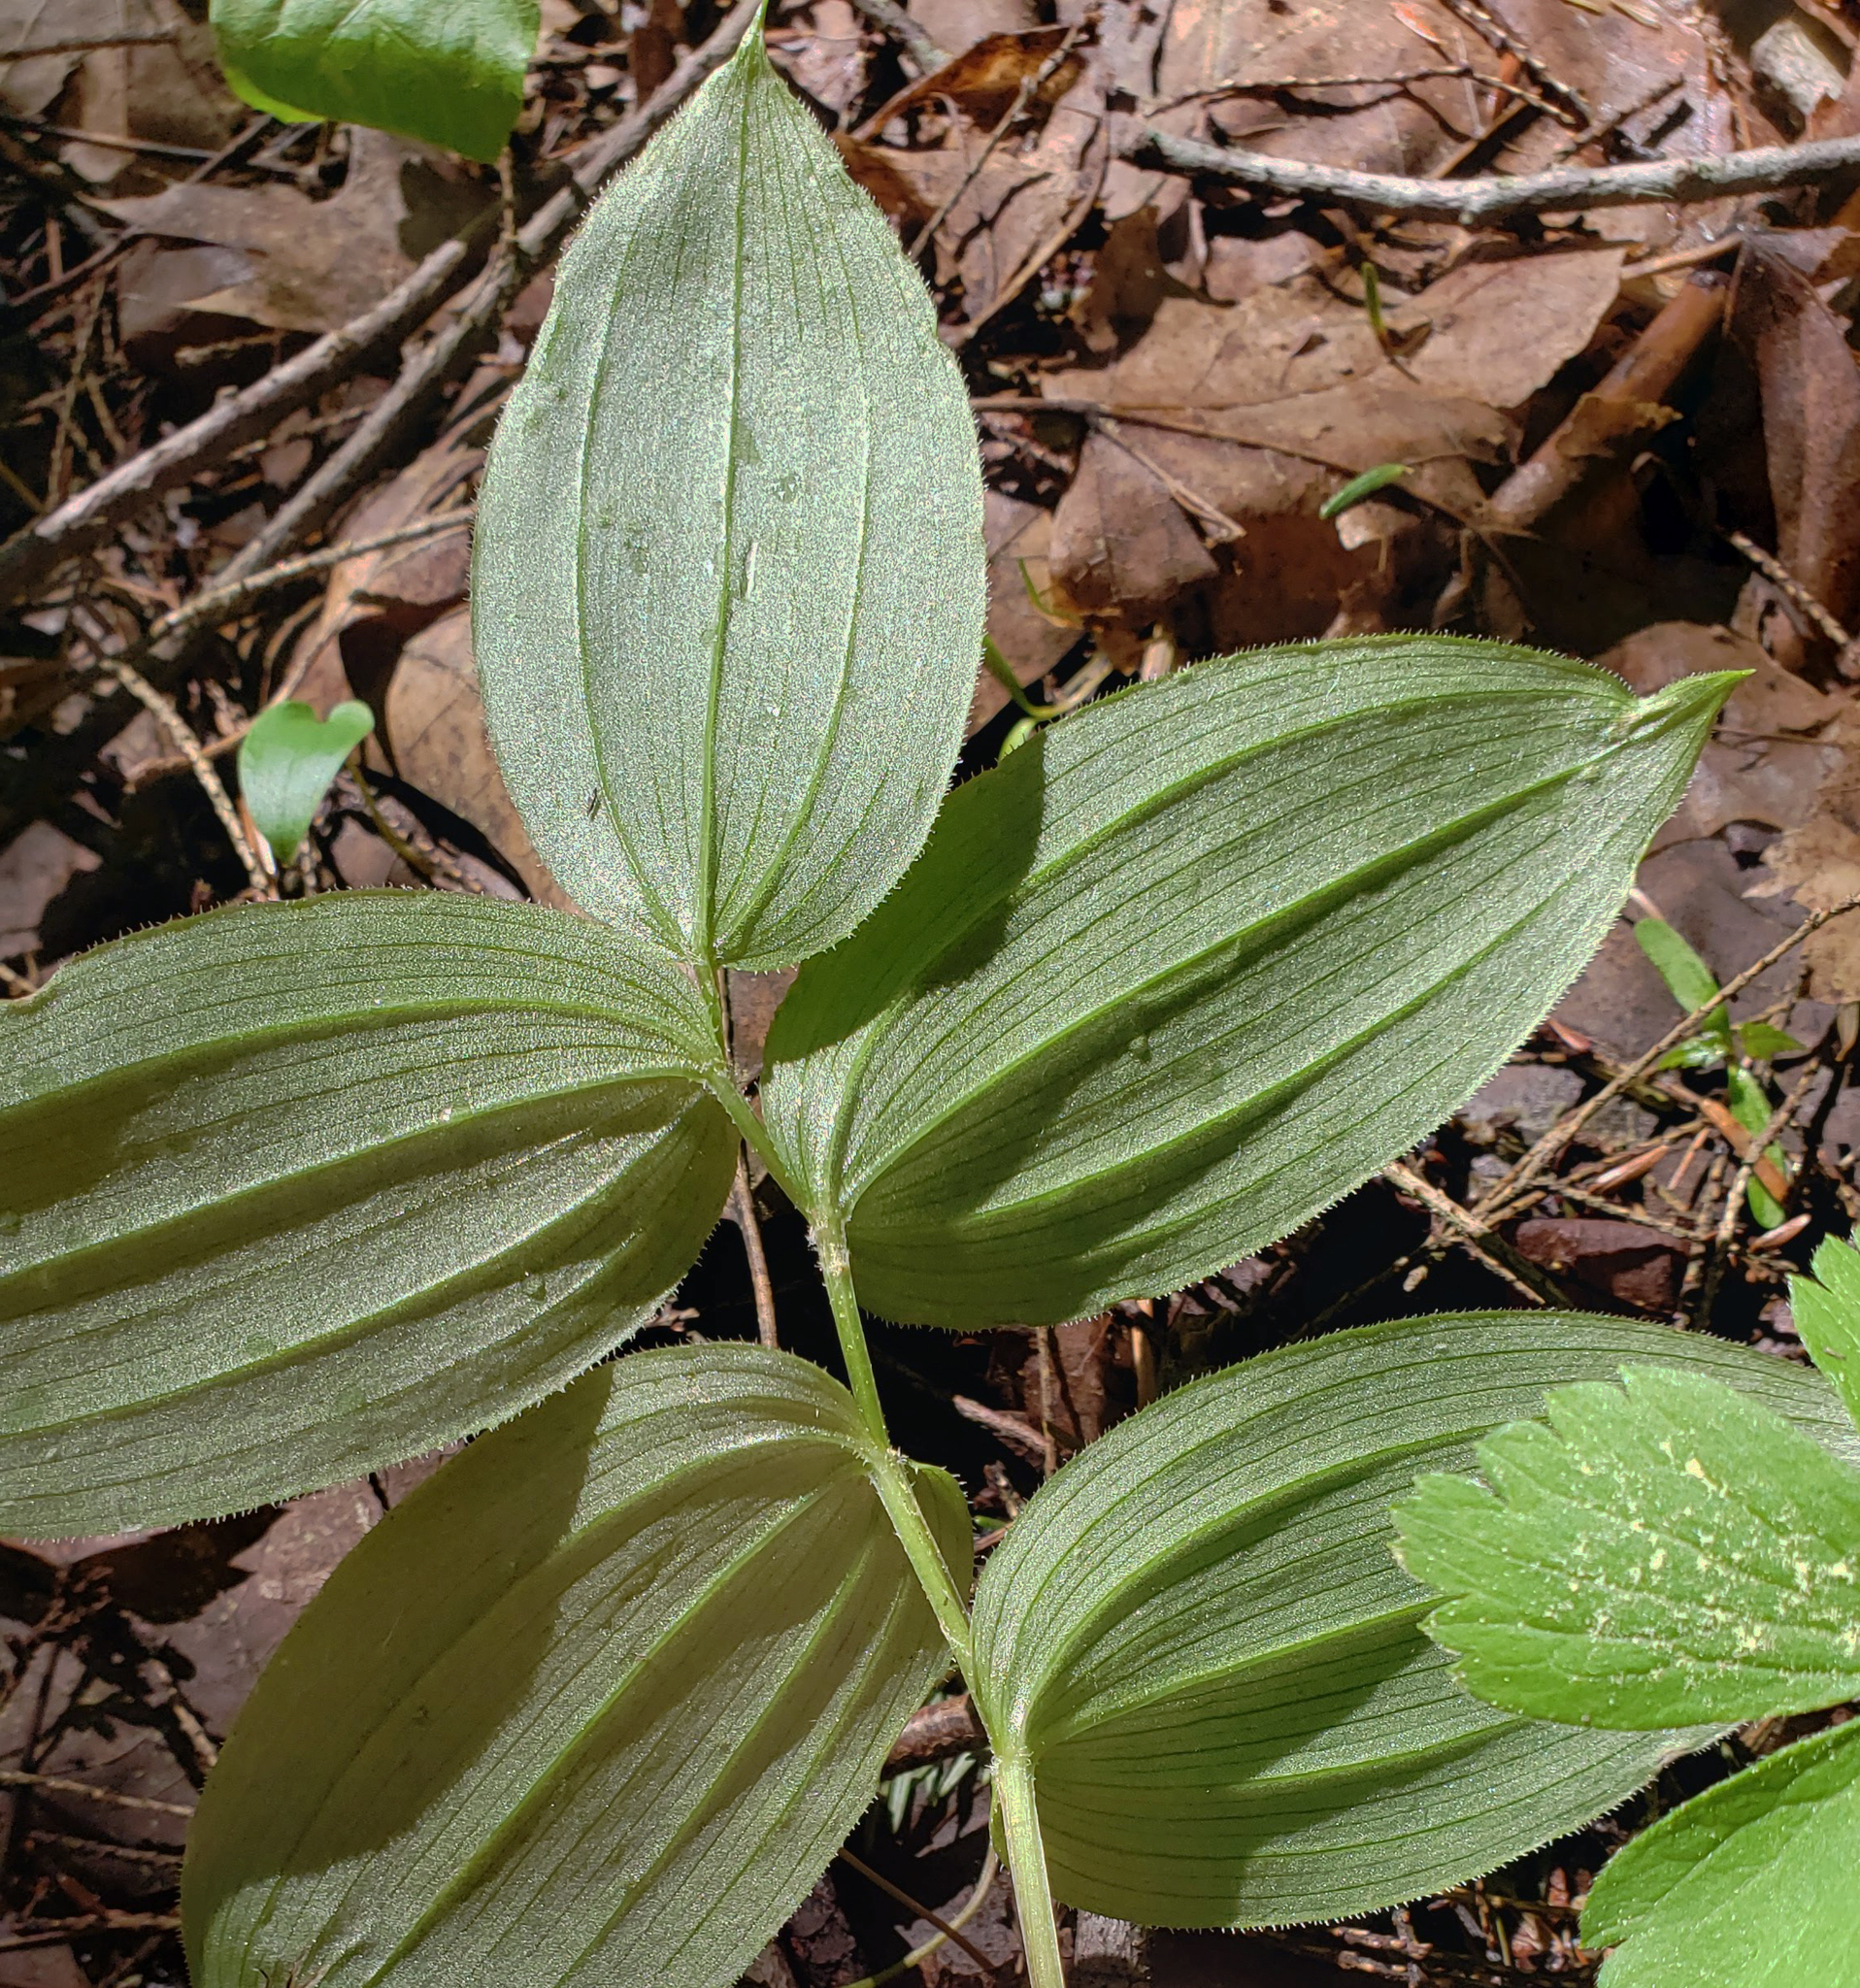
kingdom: Plantae
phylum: Tracheophyta
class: Liliopsida
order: Liliales
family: Liliaceae
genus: Streptopus
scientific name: Streptopus lanceolatus
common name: Rose mandarin
